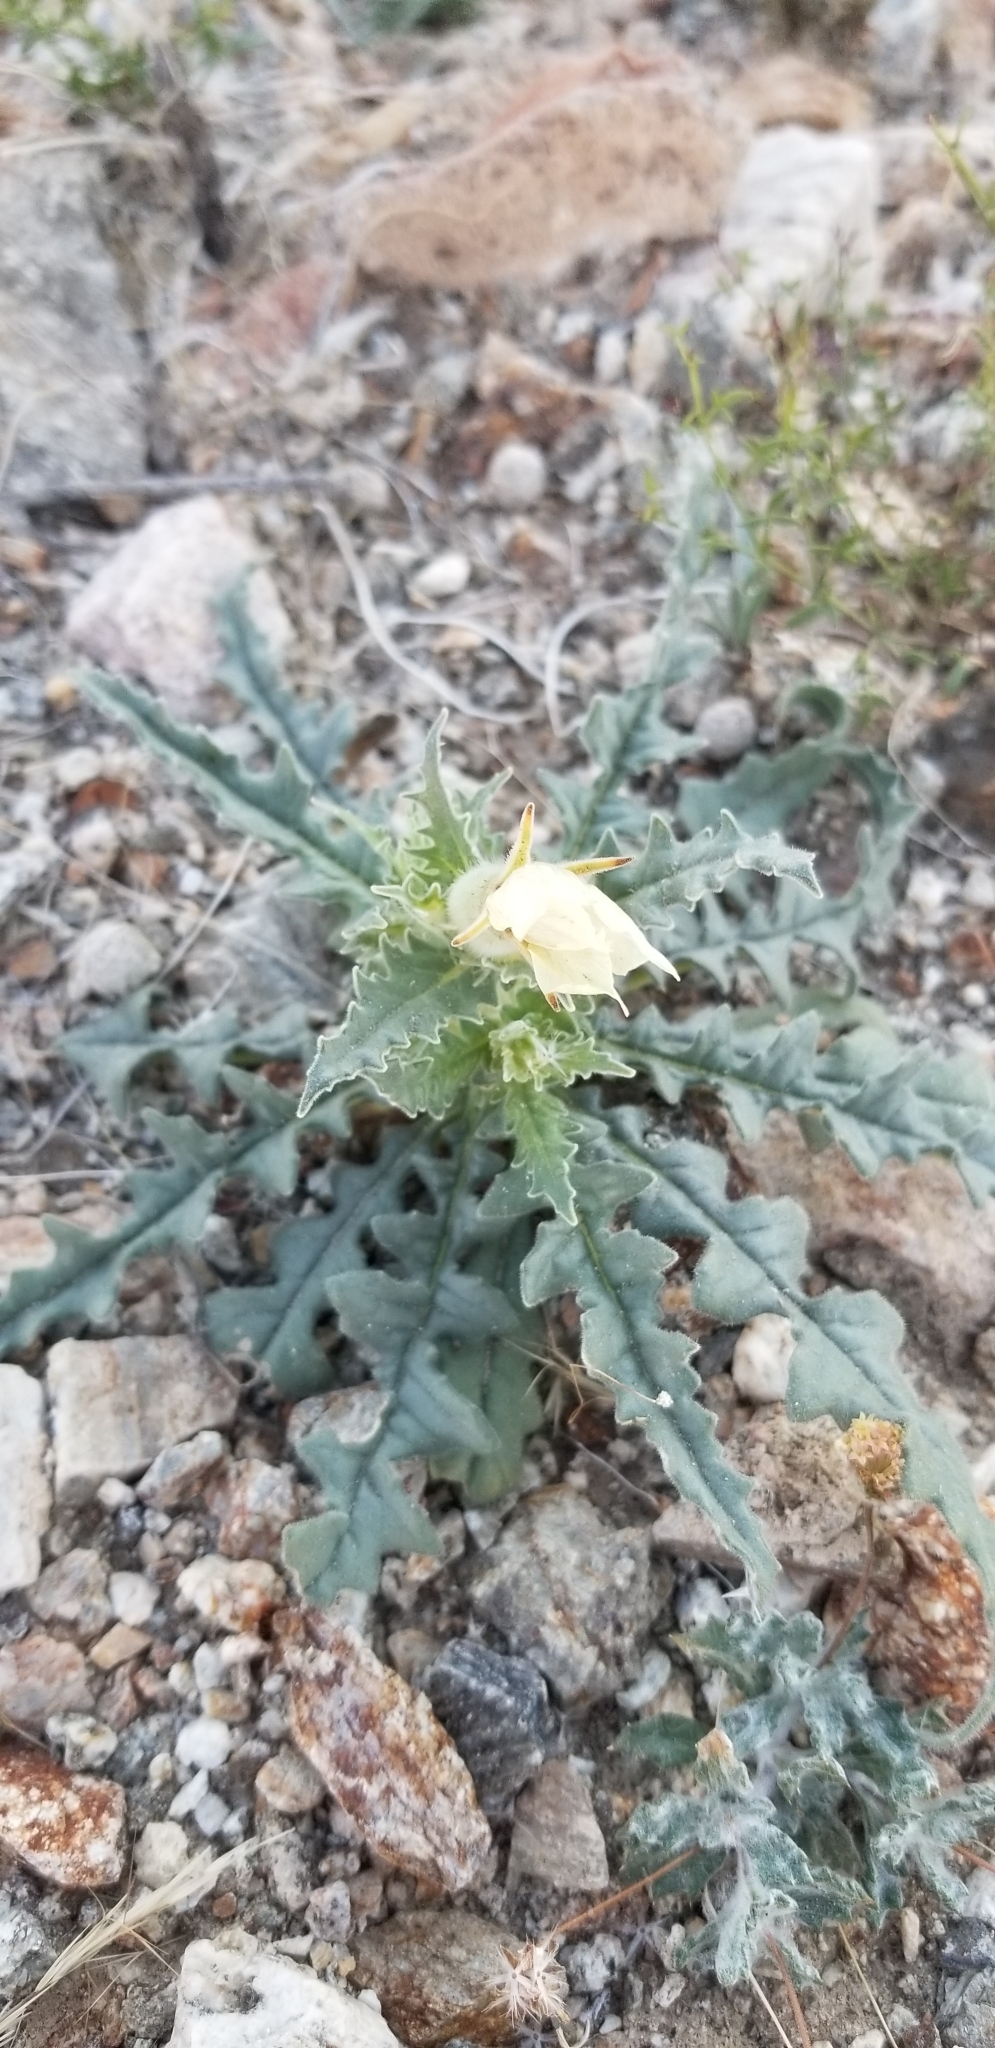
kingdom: Plantae
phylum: Tracheophyta
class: Magnoliopsida
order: Cornales
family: Loasaceae
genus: Mentzelia
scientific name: Mentzelia involucrata
